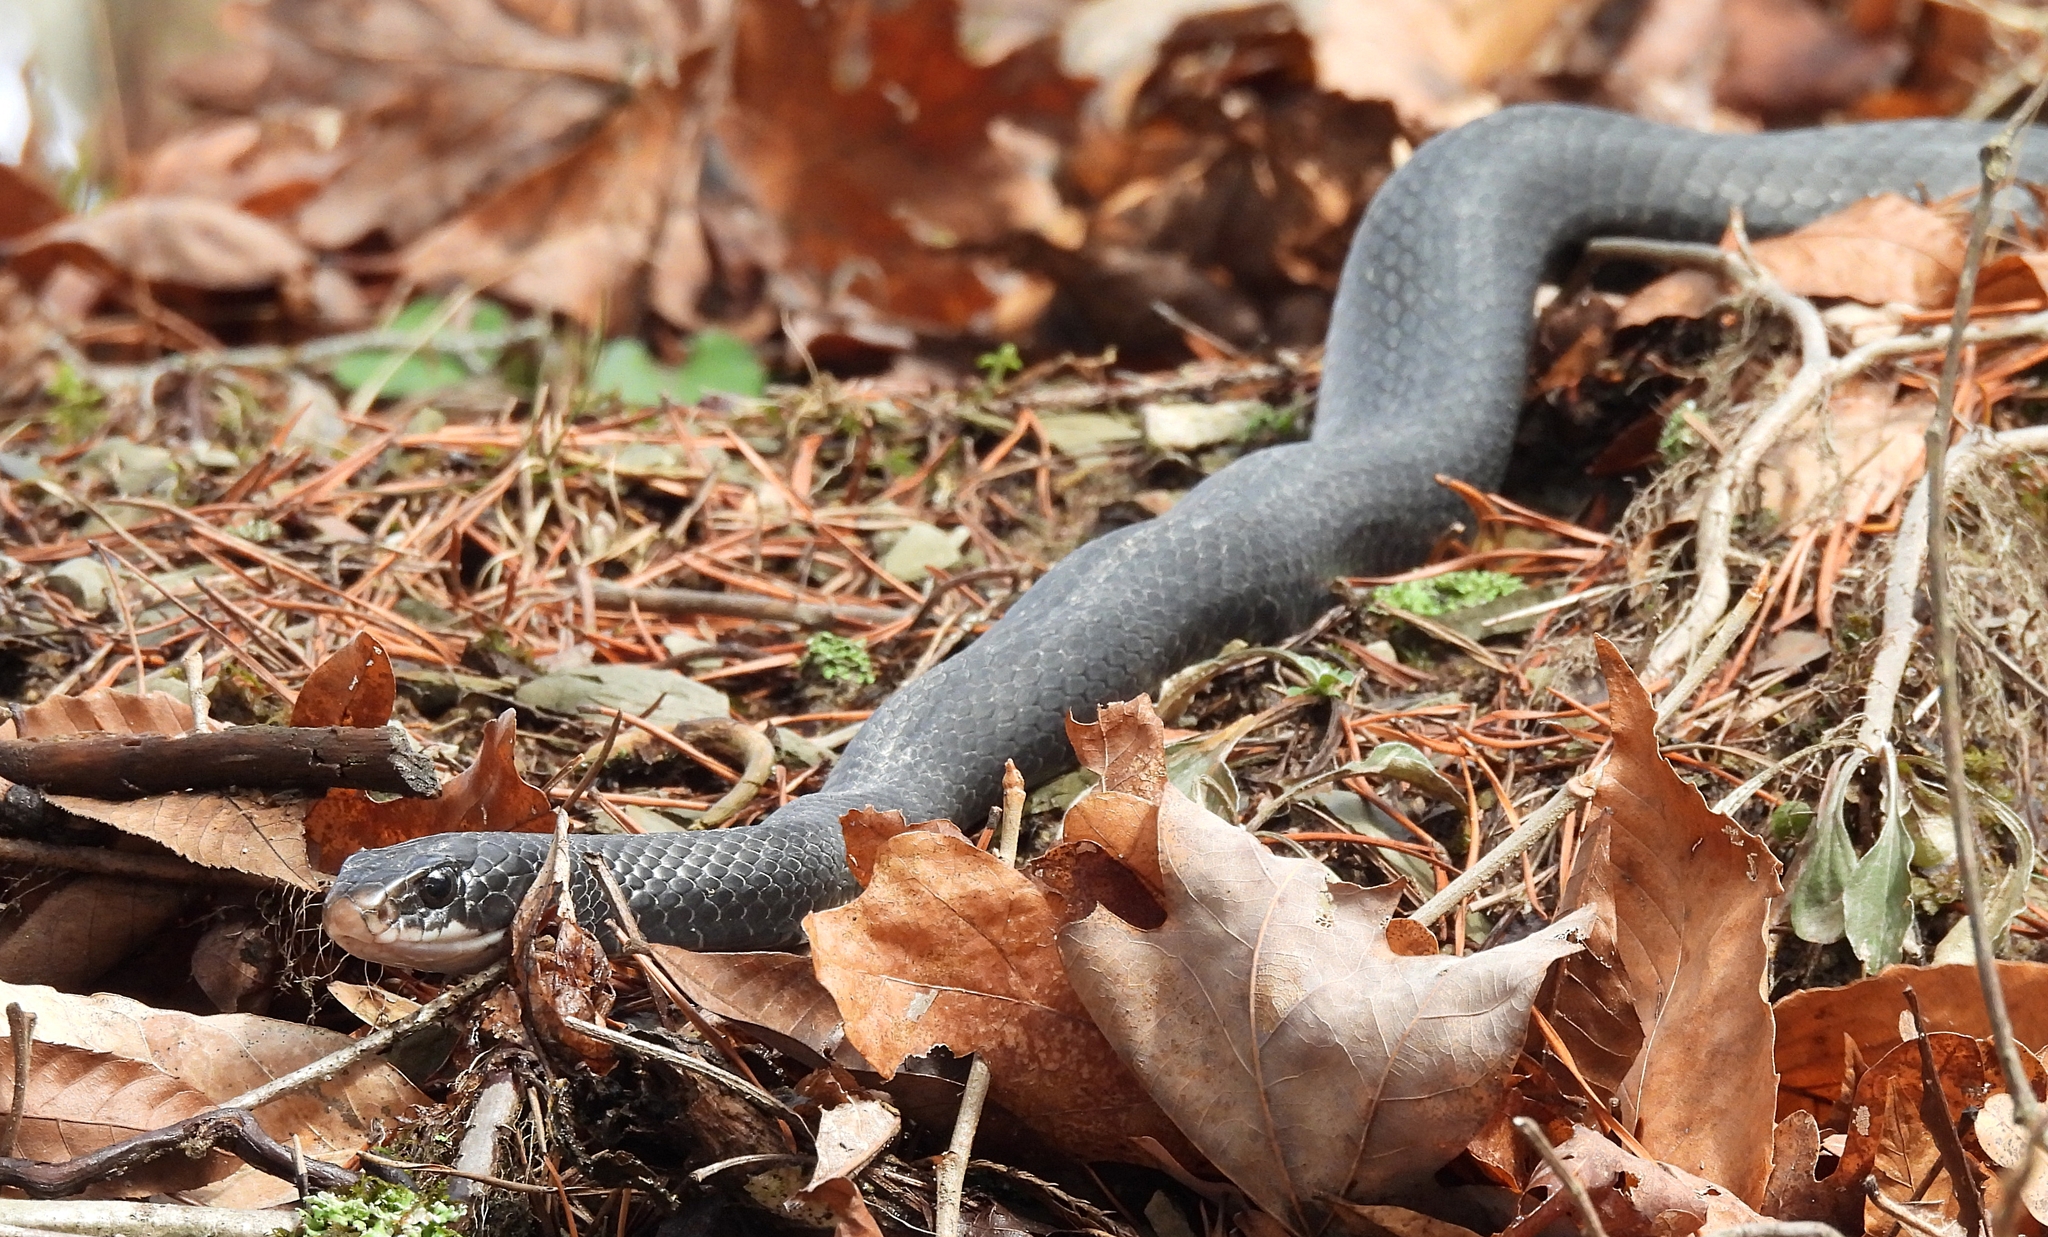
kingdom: Animalia
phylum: Chordata
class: Squamata
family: Colubridae
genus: Coluber
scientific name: Coluber constrictor
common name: Eastern racer
